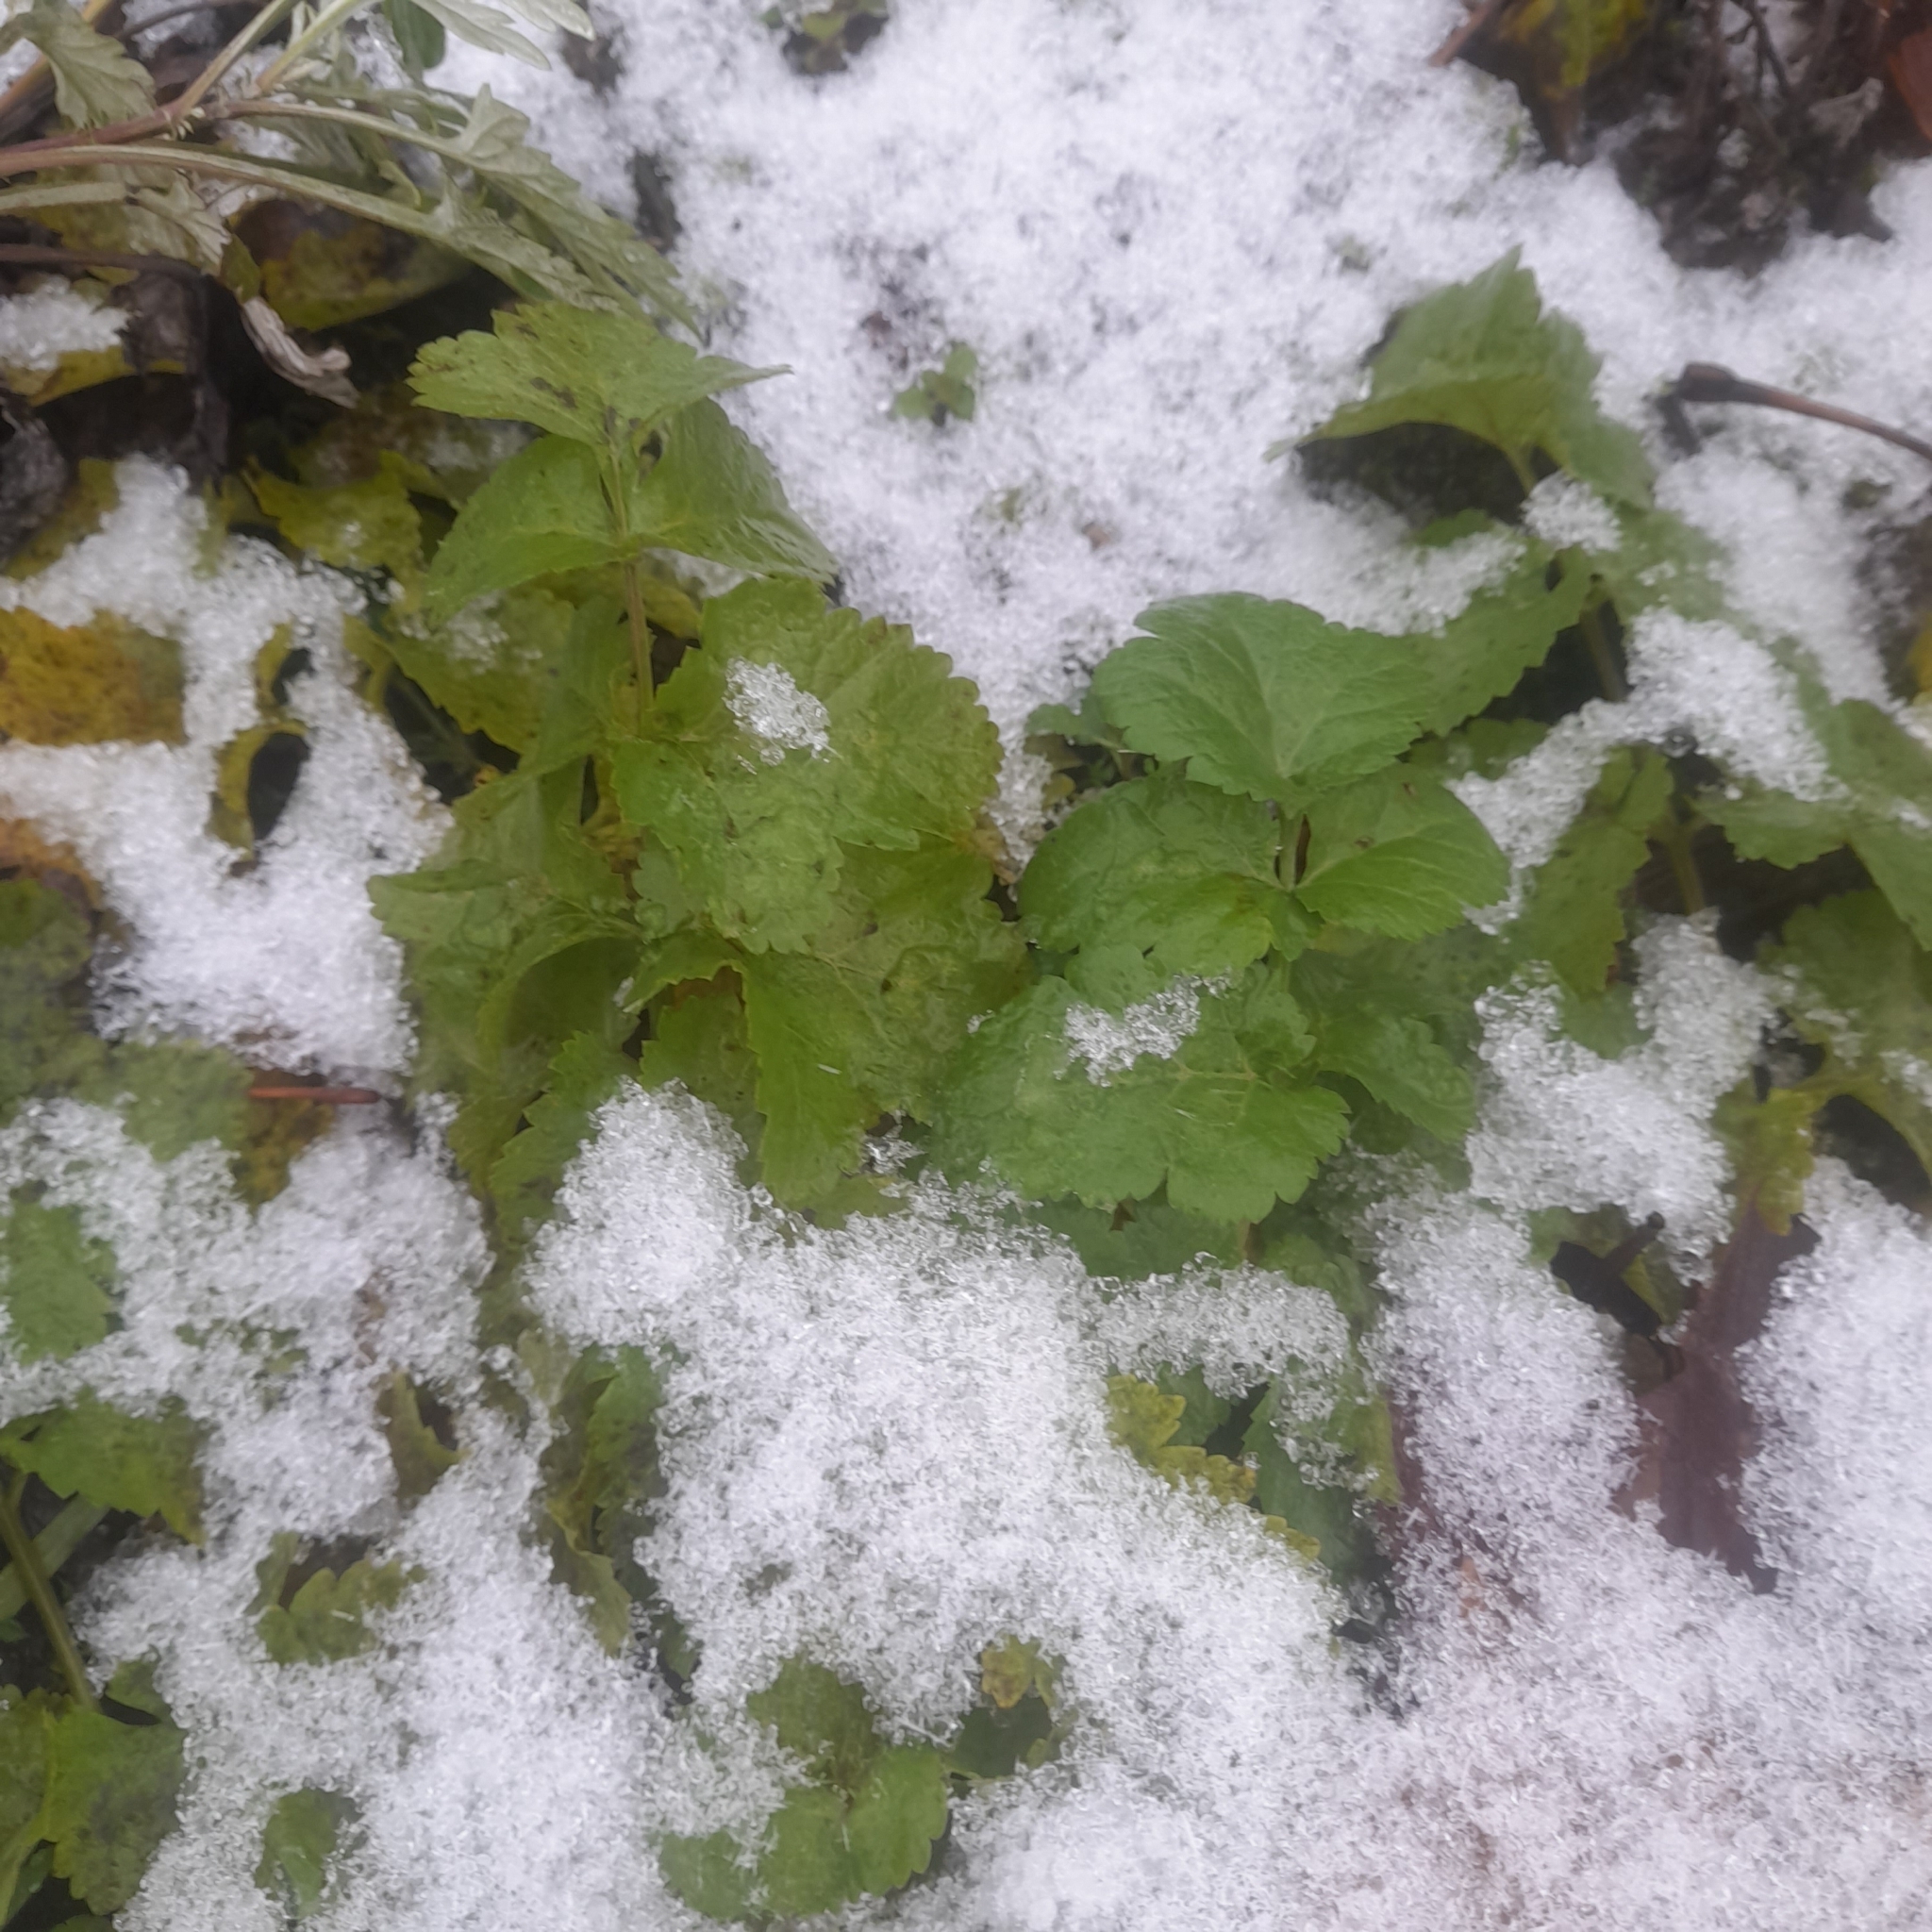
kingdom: Plantae
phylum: Tracheophyta
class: Magnoliopsida
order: Apiales
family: Apiaceae
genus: Pastinaca
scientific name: Pastinaca sativa
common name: Wild parsnip
